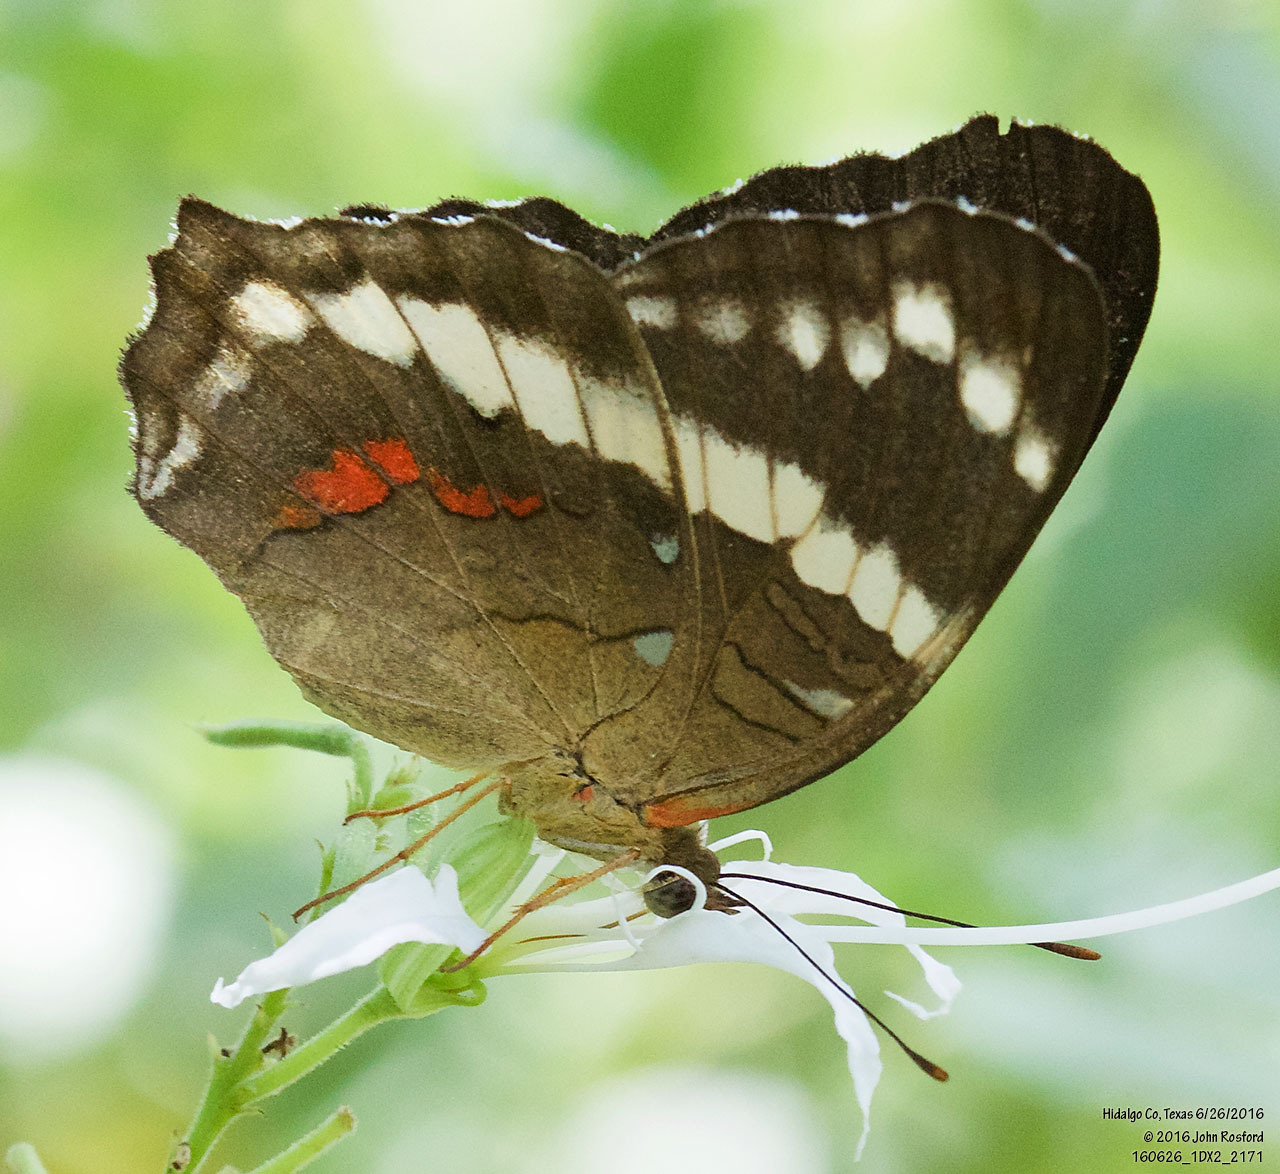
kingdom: Animalia
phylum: Arthropoda
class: Insecta
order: Lepidoptera
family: Nymphalidae
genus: Anartia
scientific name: Anartia fatima
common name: Banded peacock
